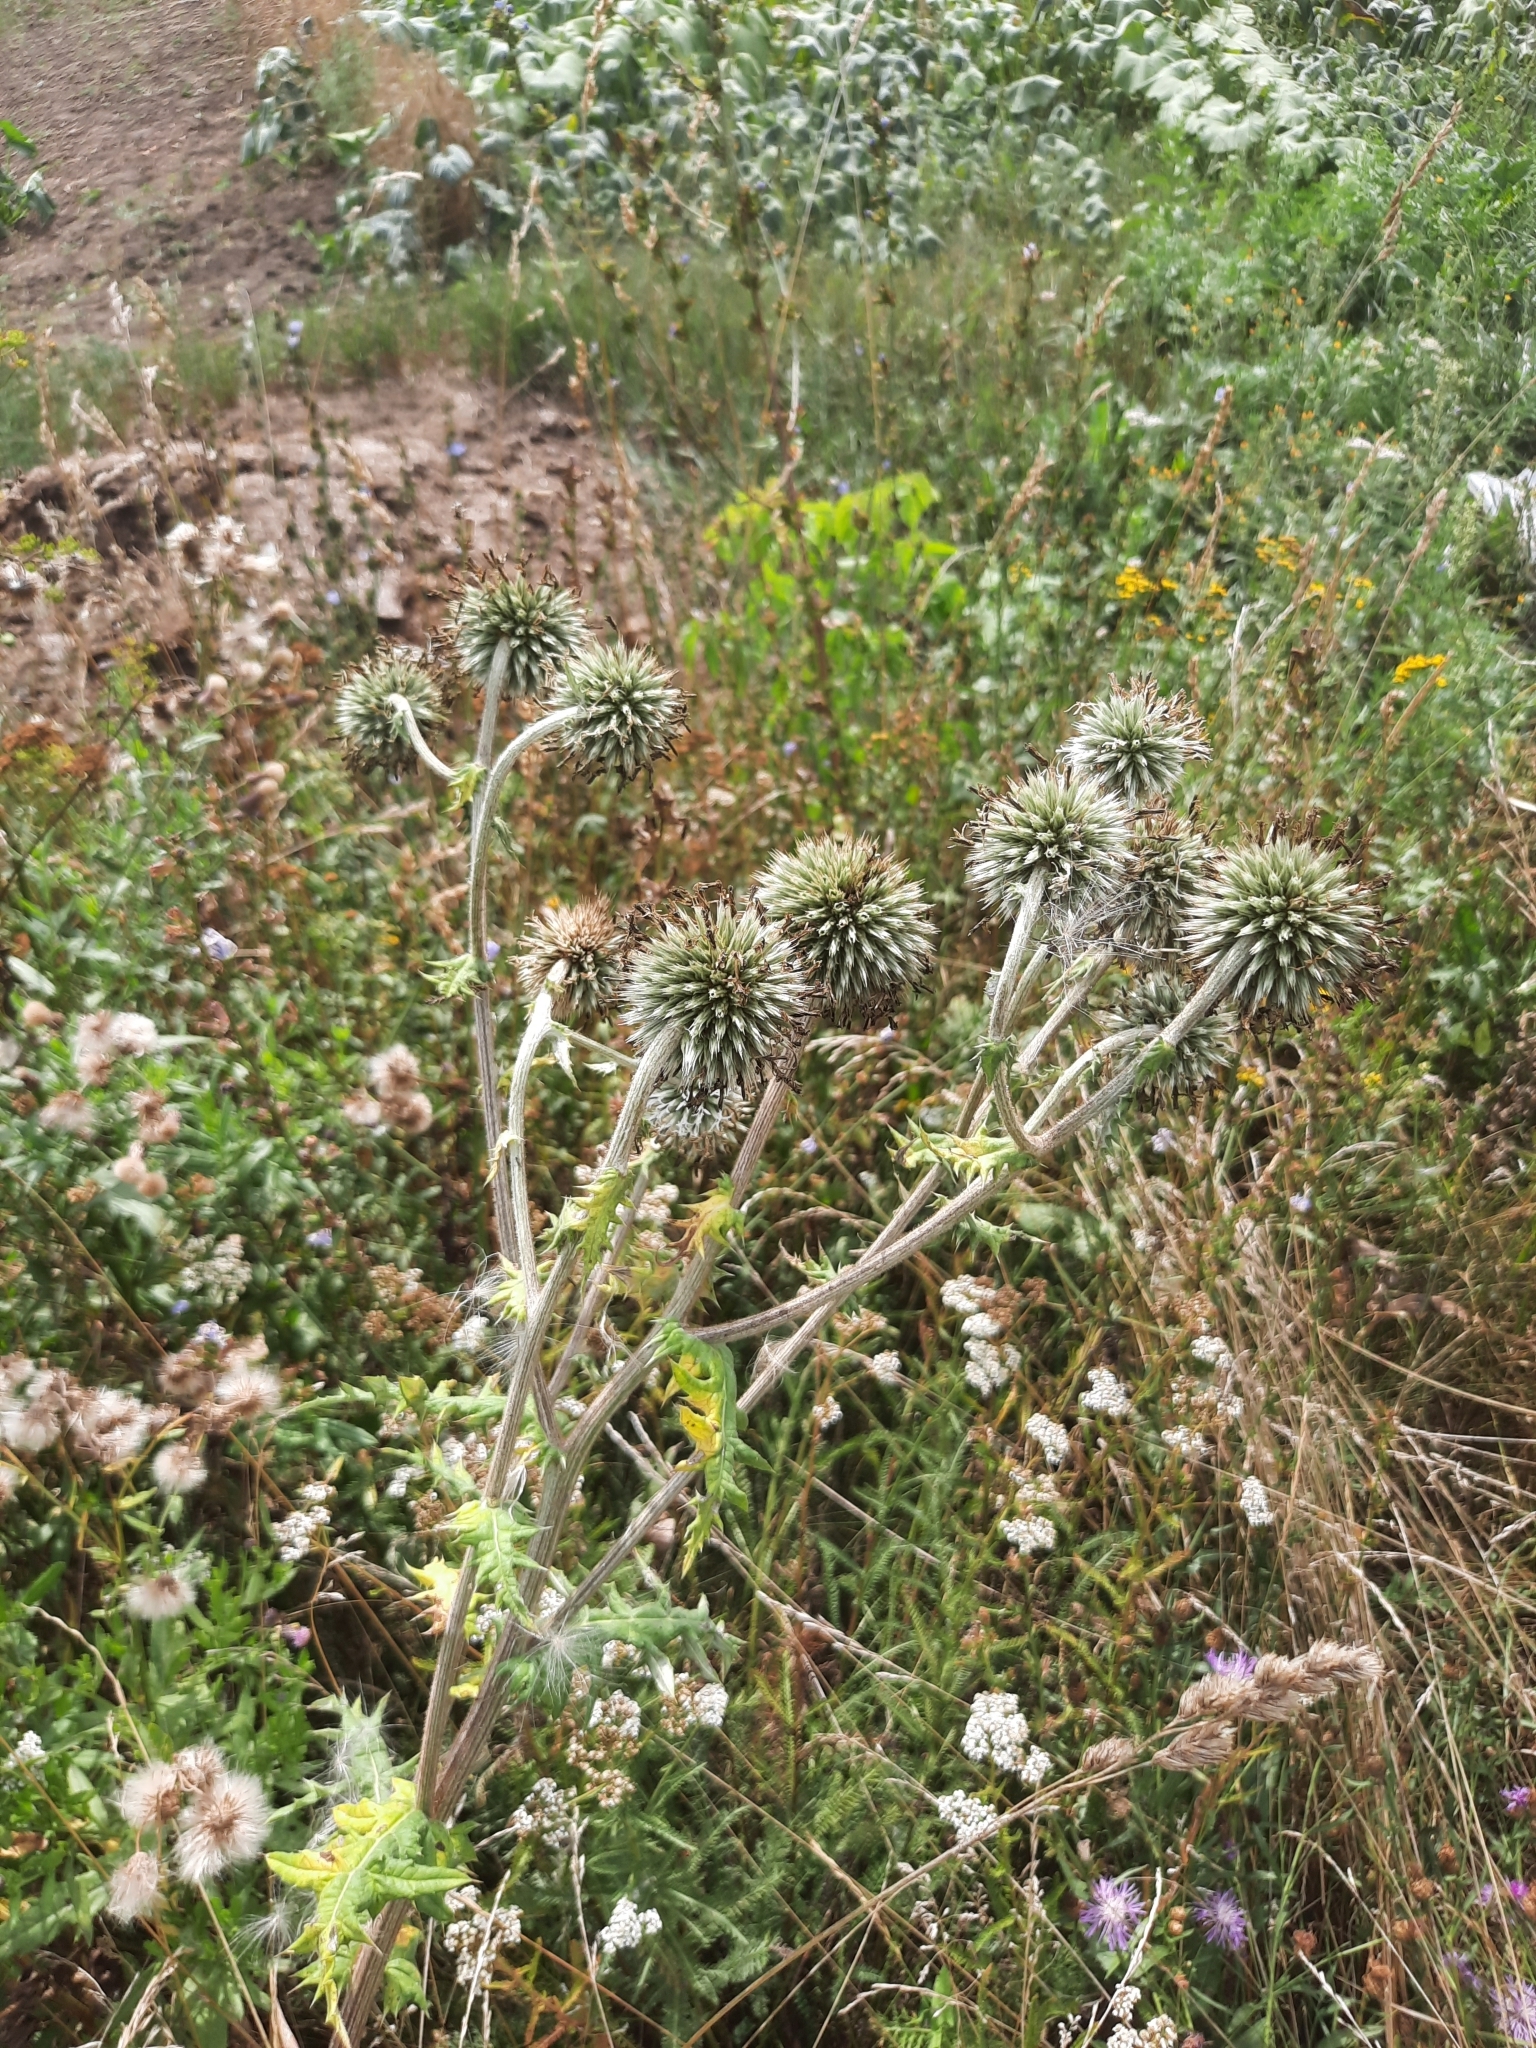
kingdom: Plantae
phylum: Tracheophyta
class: Magnoliopsida
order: Asterales
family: Asteraceae
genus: Echinops
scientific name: Echinops sphaerocephalus
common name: Glandular globe-thistle
